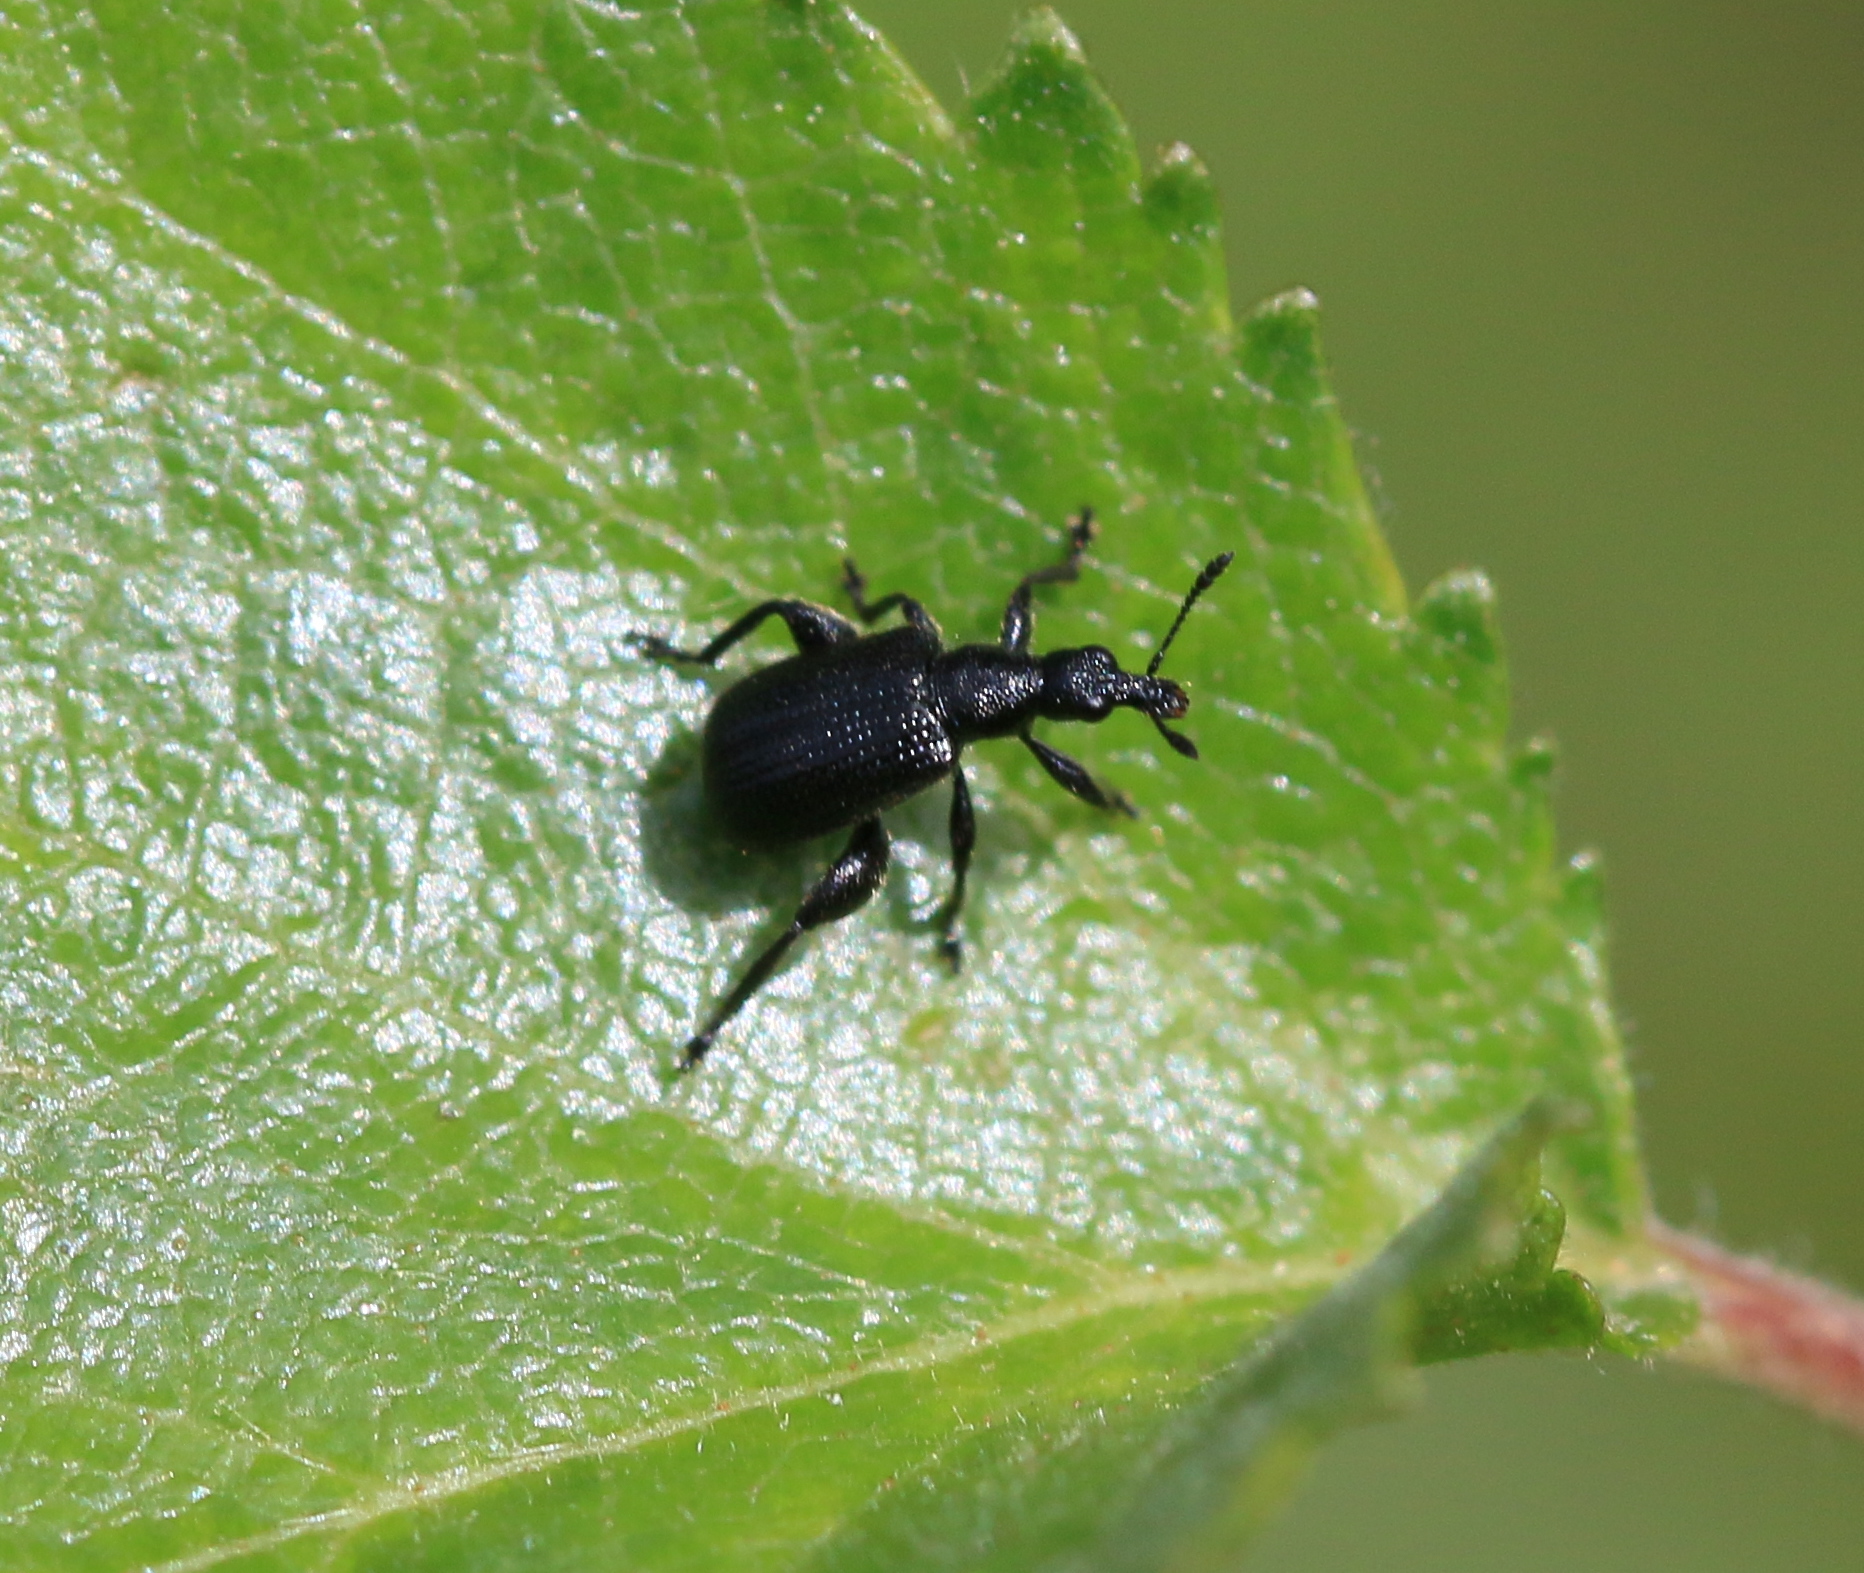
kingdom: Animalia
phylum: Arthropoda
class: Insecta
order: Coleoptera
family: Attelabidae
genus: Deporaus
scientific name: Deporaus betulae
